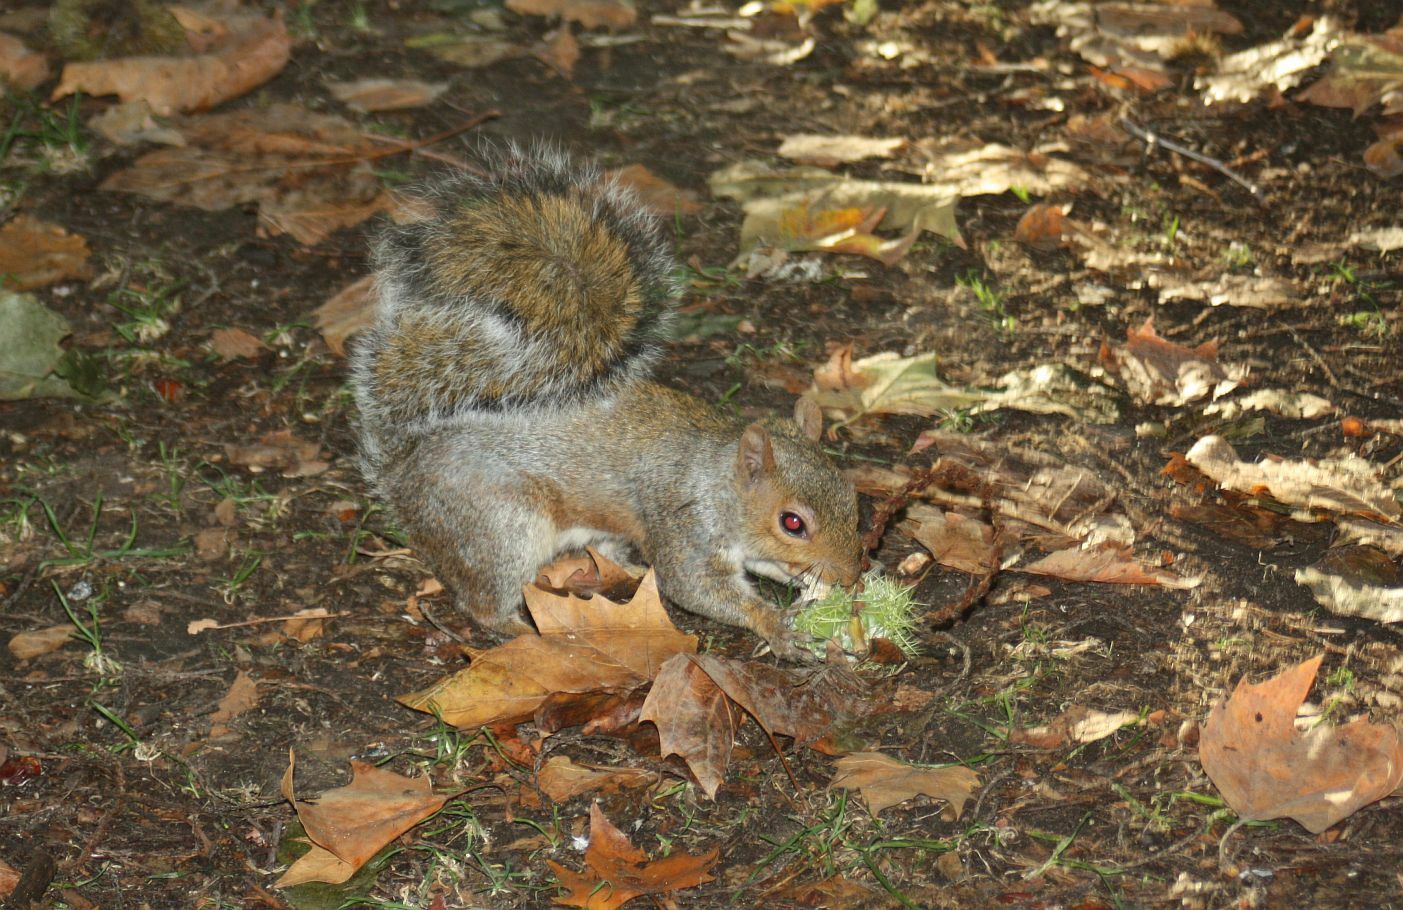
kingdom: Animalia
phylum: Chordata
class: Mammalia
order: Rodentia
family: Sciuridae
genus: Sciurus
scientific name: Sciurus carolinensis
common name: Eastern gray squirrel
